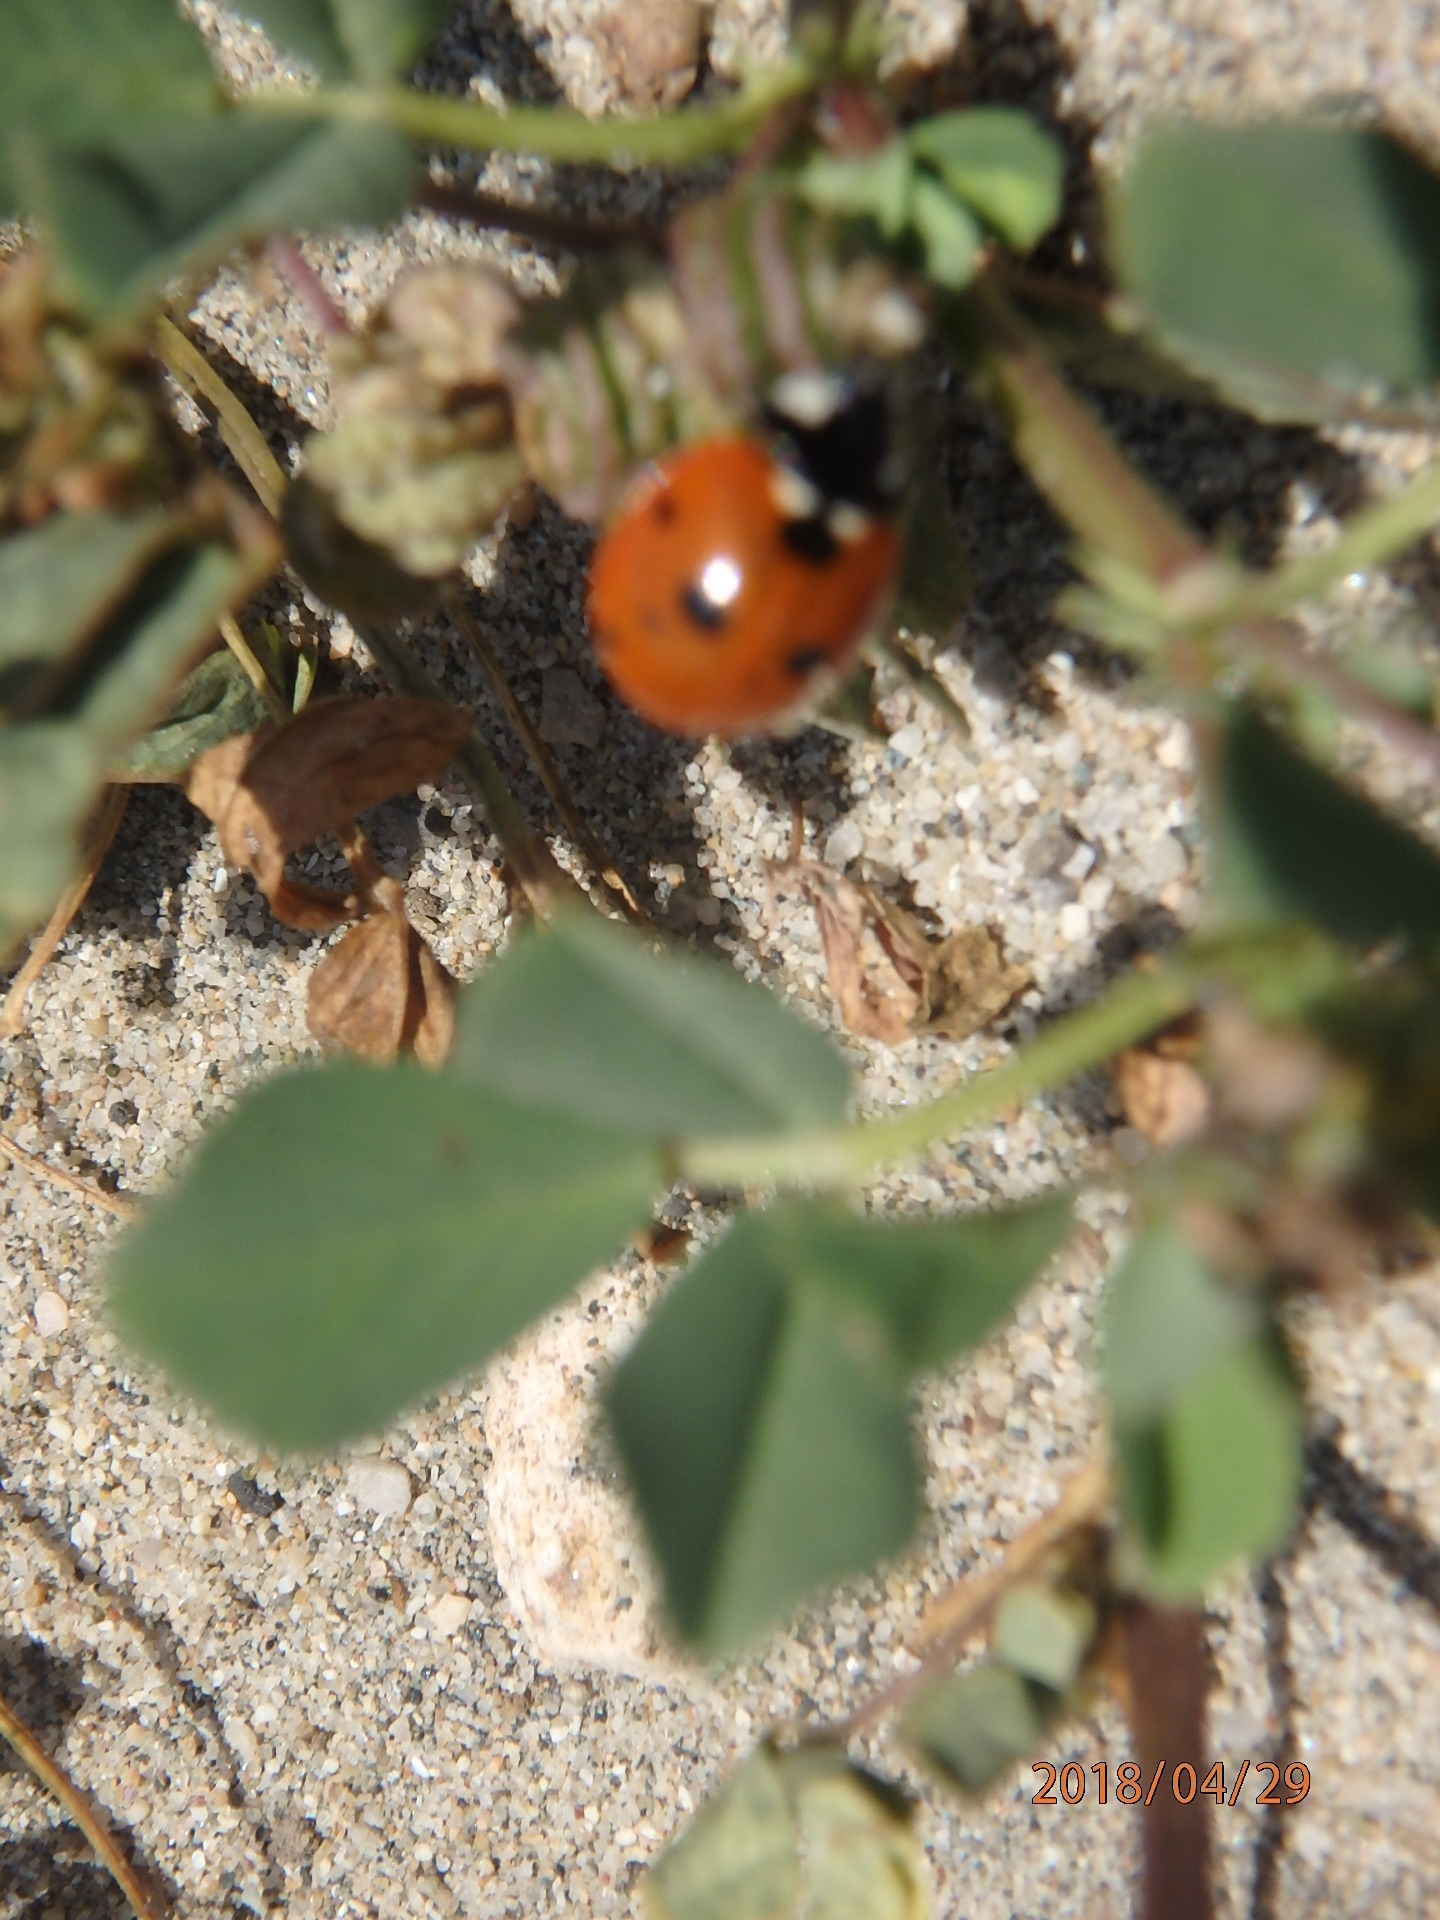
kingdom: Animalia
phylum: Arthropoda
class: Insecta
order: Coleoptera
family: Coccinellidae
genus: Coccinella
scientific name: Coccinella septempunctata
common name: Sevenspotted lady beetle
